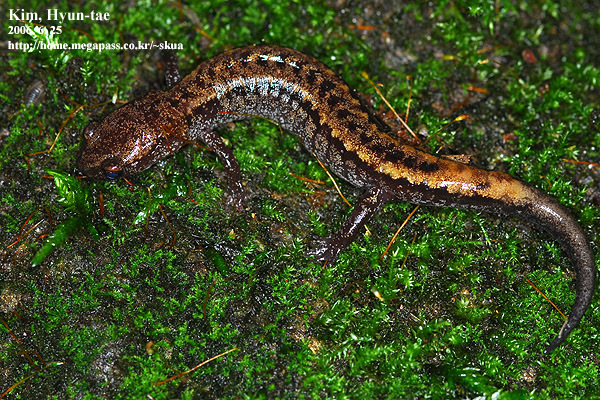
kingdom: Animalia
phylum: Chordata
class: Amphibia
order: Caudata
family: Plethodontidae
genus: Karsenia
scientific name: Karsenia koreana
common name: Korean crevice salamander
